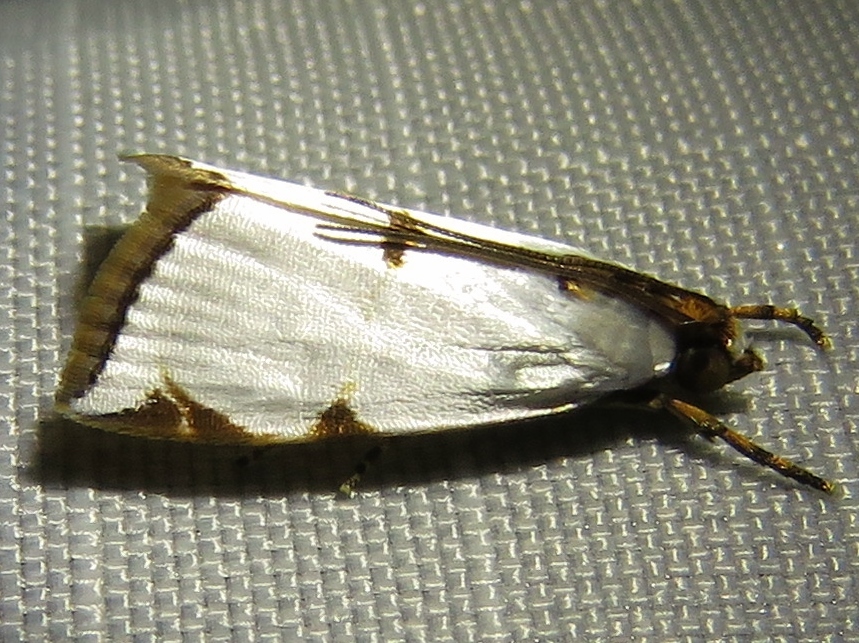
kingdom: Animalia
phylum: Arthropoda
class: Insecta
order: Lepidoptera
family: Crambidae
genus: Argyria
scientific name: Argyria lacteella
